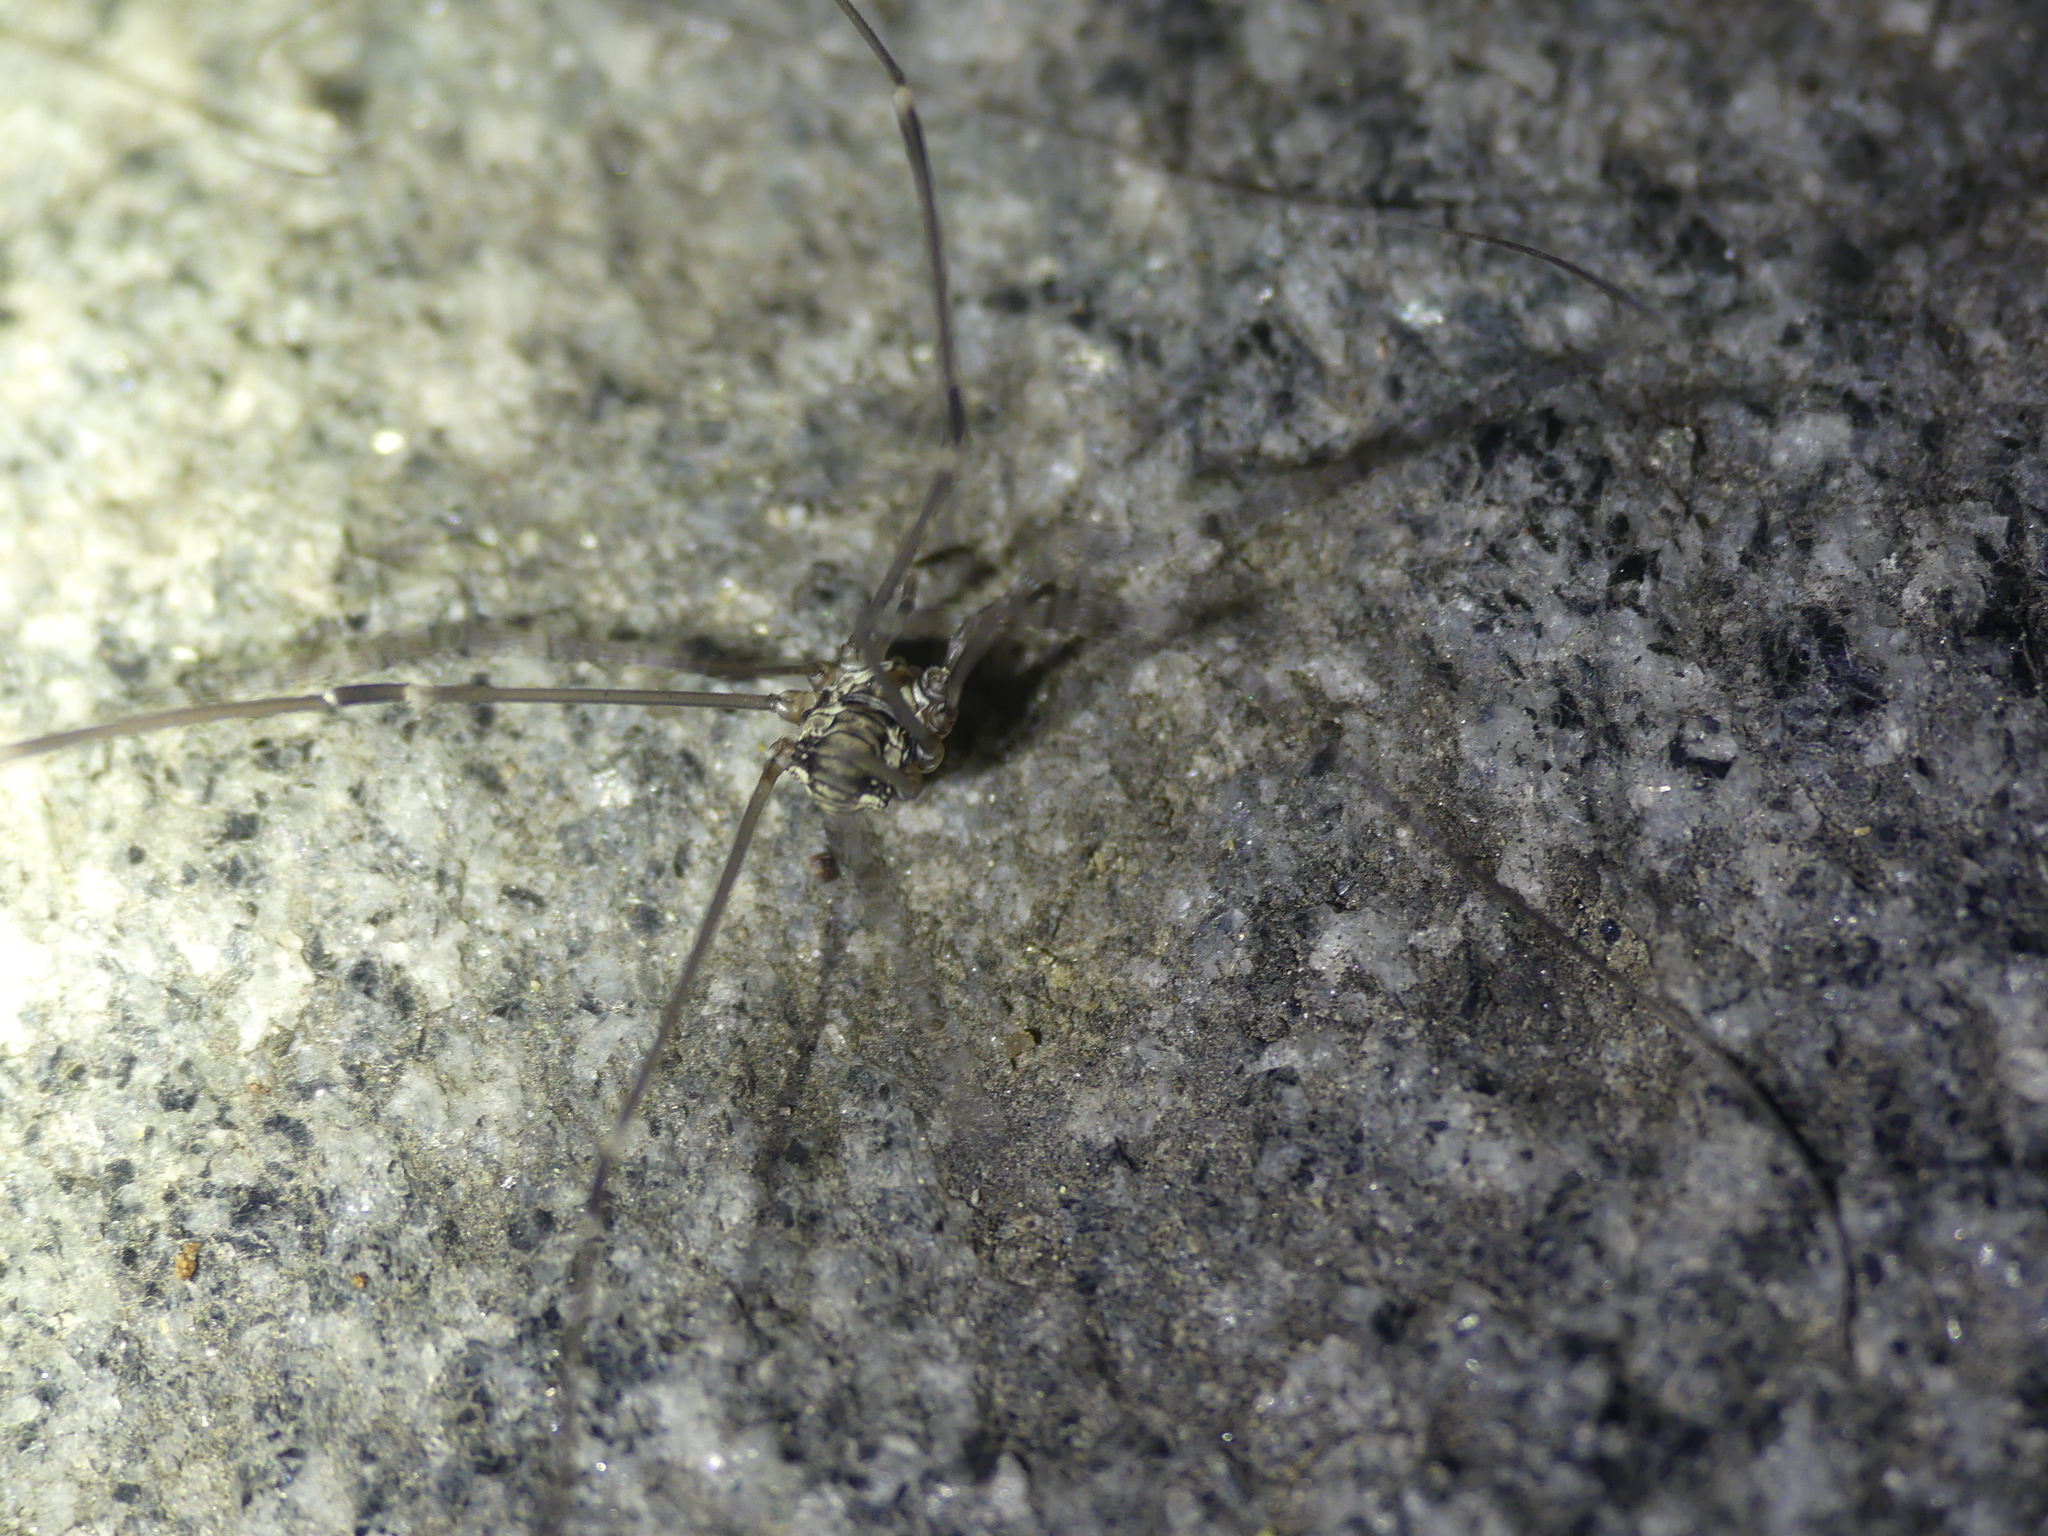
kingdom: Animalia
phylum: Arthropoda
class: Arachnida
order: Opiliones
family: Sclerosomatidae
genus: Leiobunum
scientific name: Leiobunum limbatum
